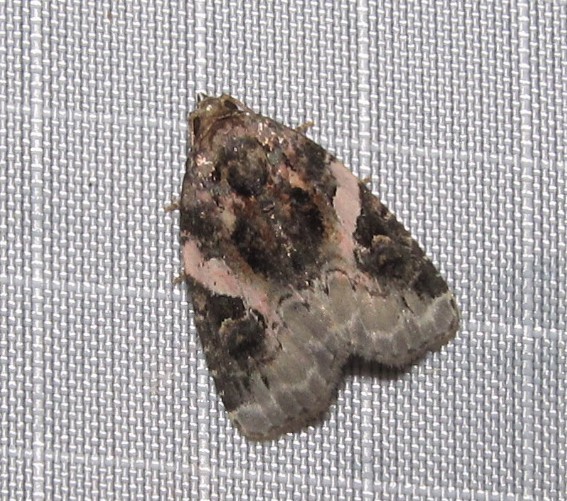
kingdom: Animalia
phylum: Arthropoda
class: Insecta
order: Lepidoptera
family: Noctuidae
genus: Pseudeustrotia
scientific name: Pseudeustrotia carneola
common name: Pink-barred lithacodia moth
